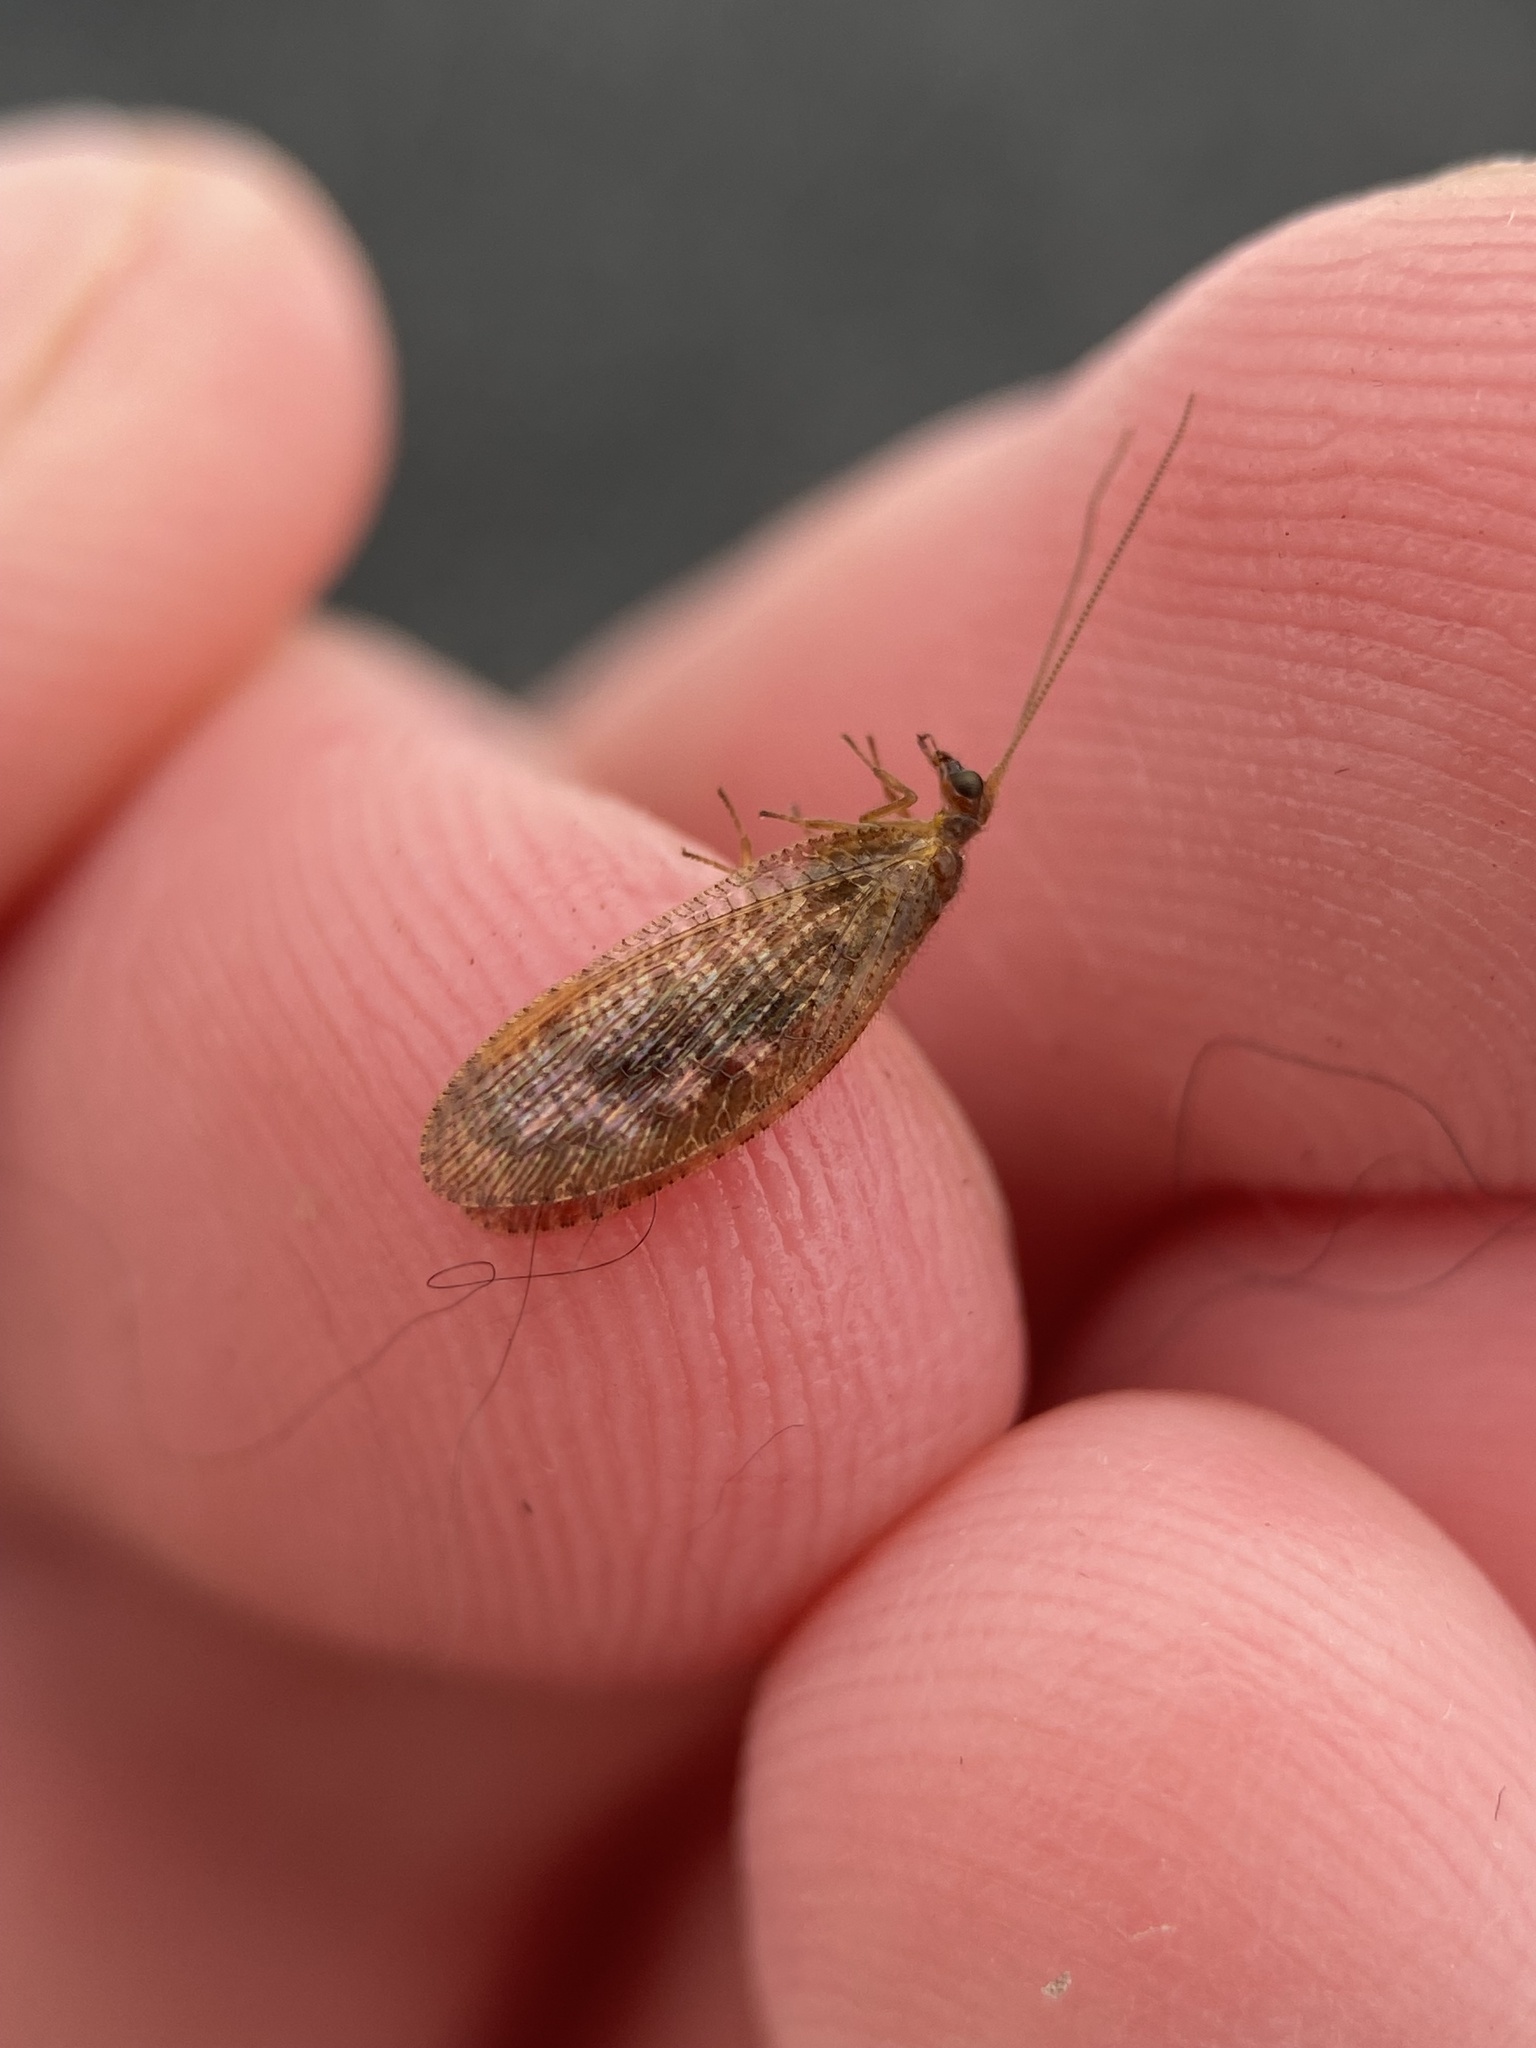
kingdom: Animalia
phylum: Arthropoda
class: Insecta
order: Neuroptera
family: Hemerobiidae
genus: Hemerobius
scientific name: Hemerobius stigma
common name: Brown pine lacewing
